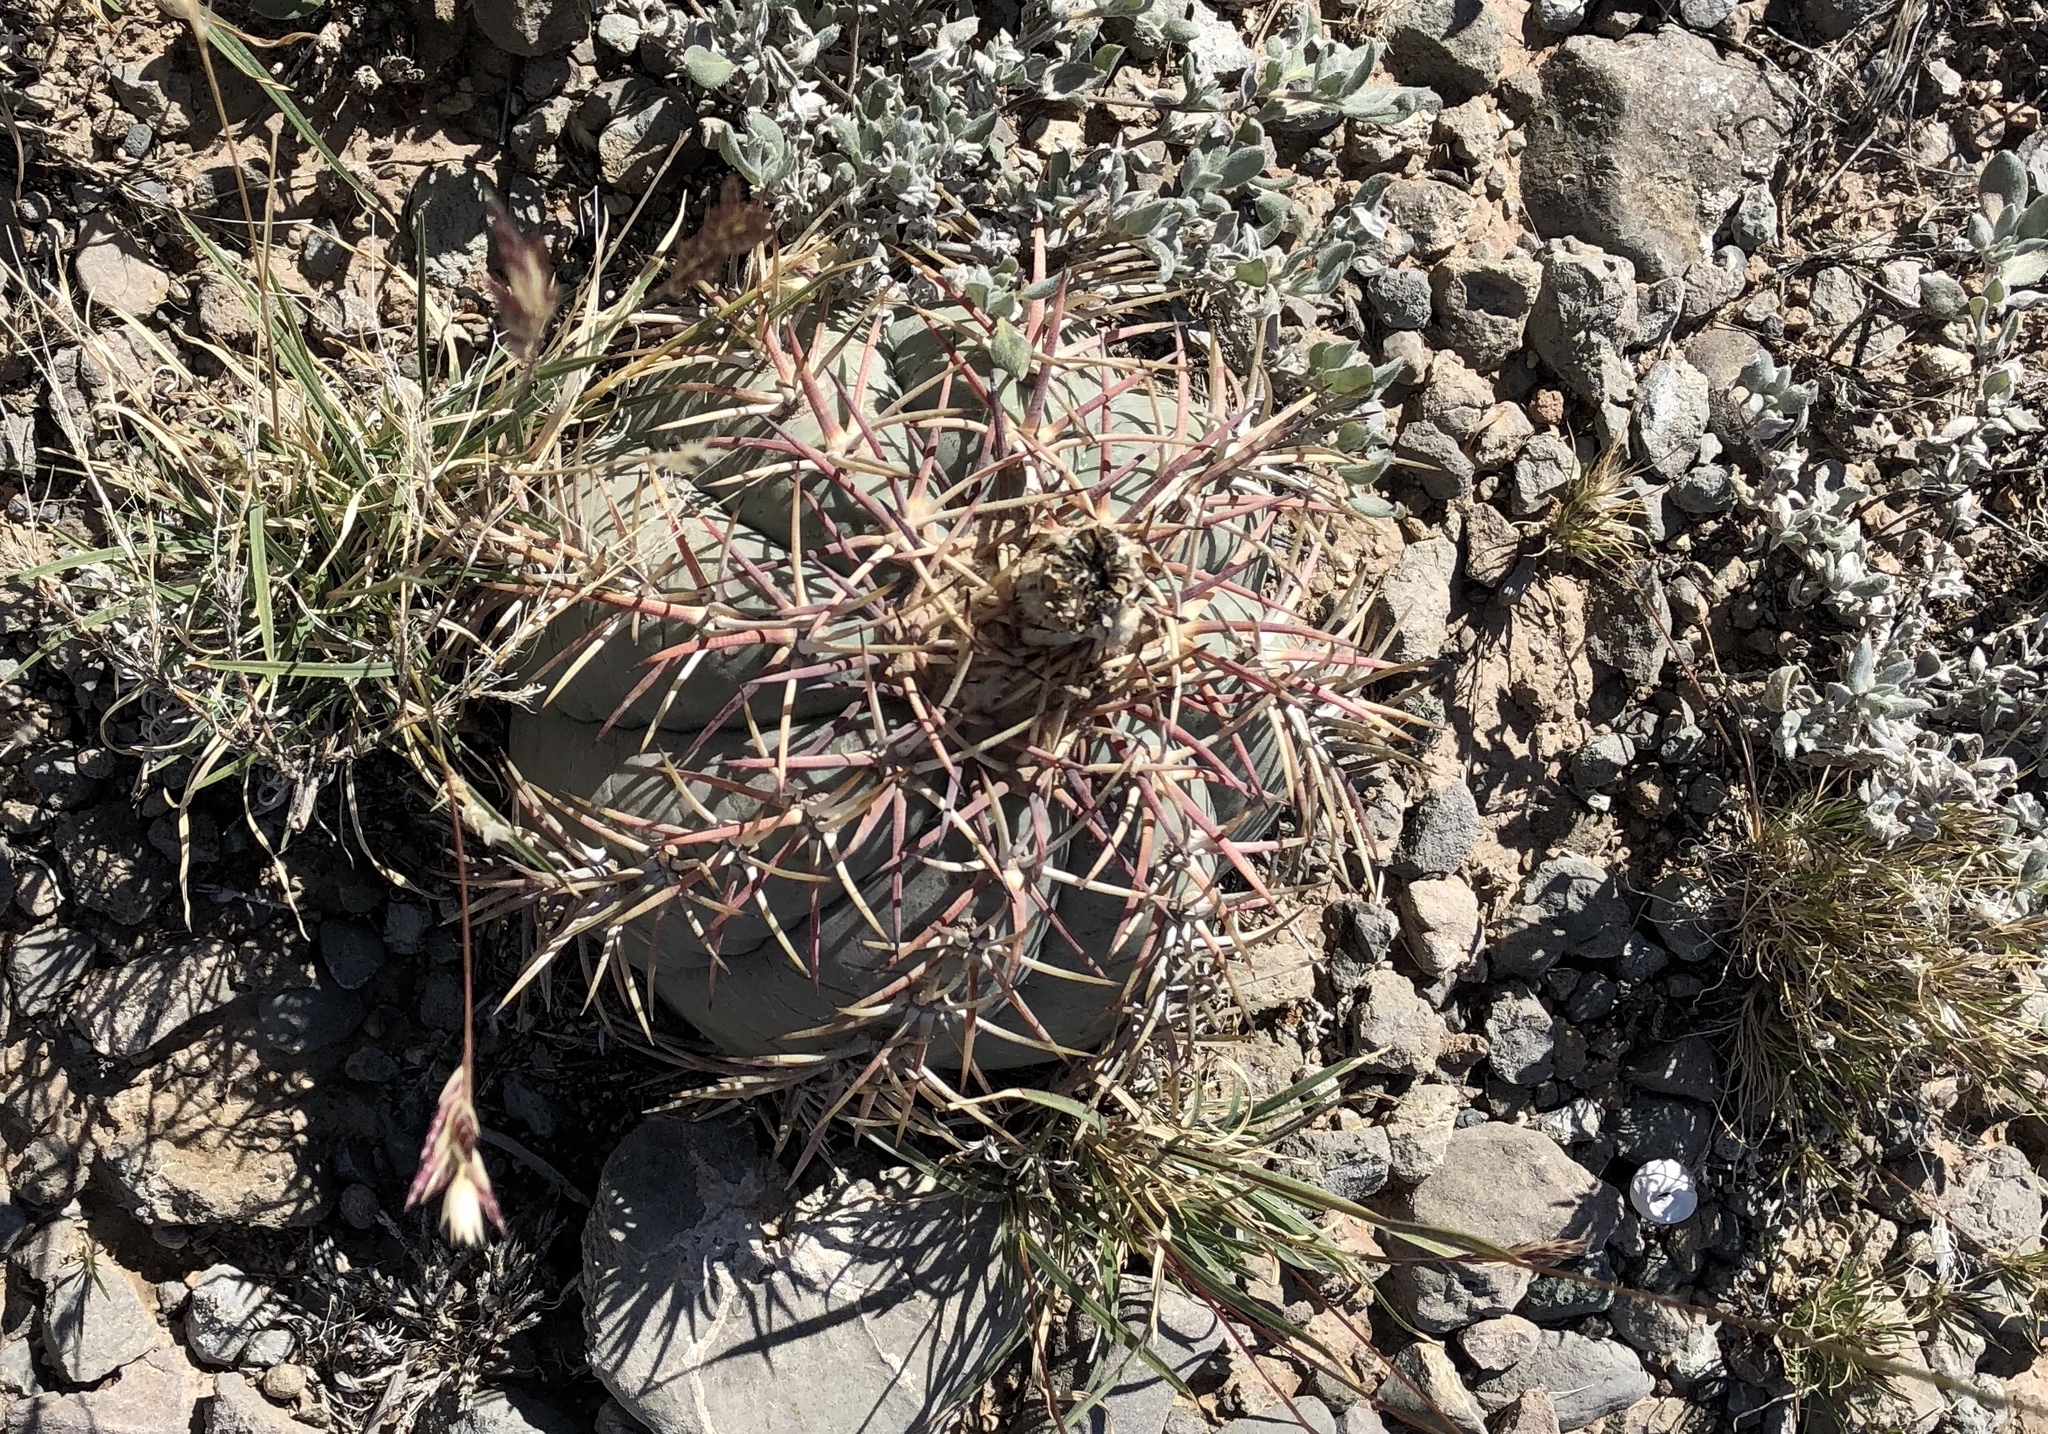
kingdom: Plantae
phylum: Tracheophyta
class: Magnoliopsida
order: Caryophyllales
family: Cactaceae
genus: Echinocactus
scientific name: Echinocactus horizonthalonius
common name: Devilshead
